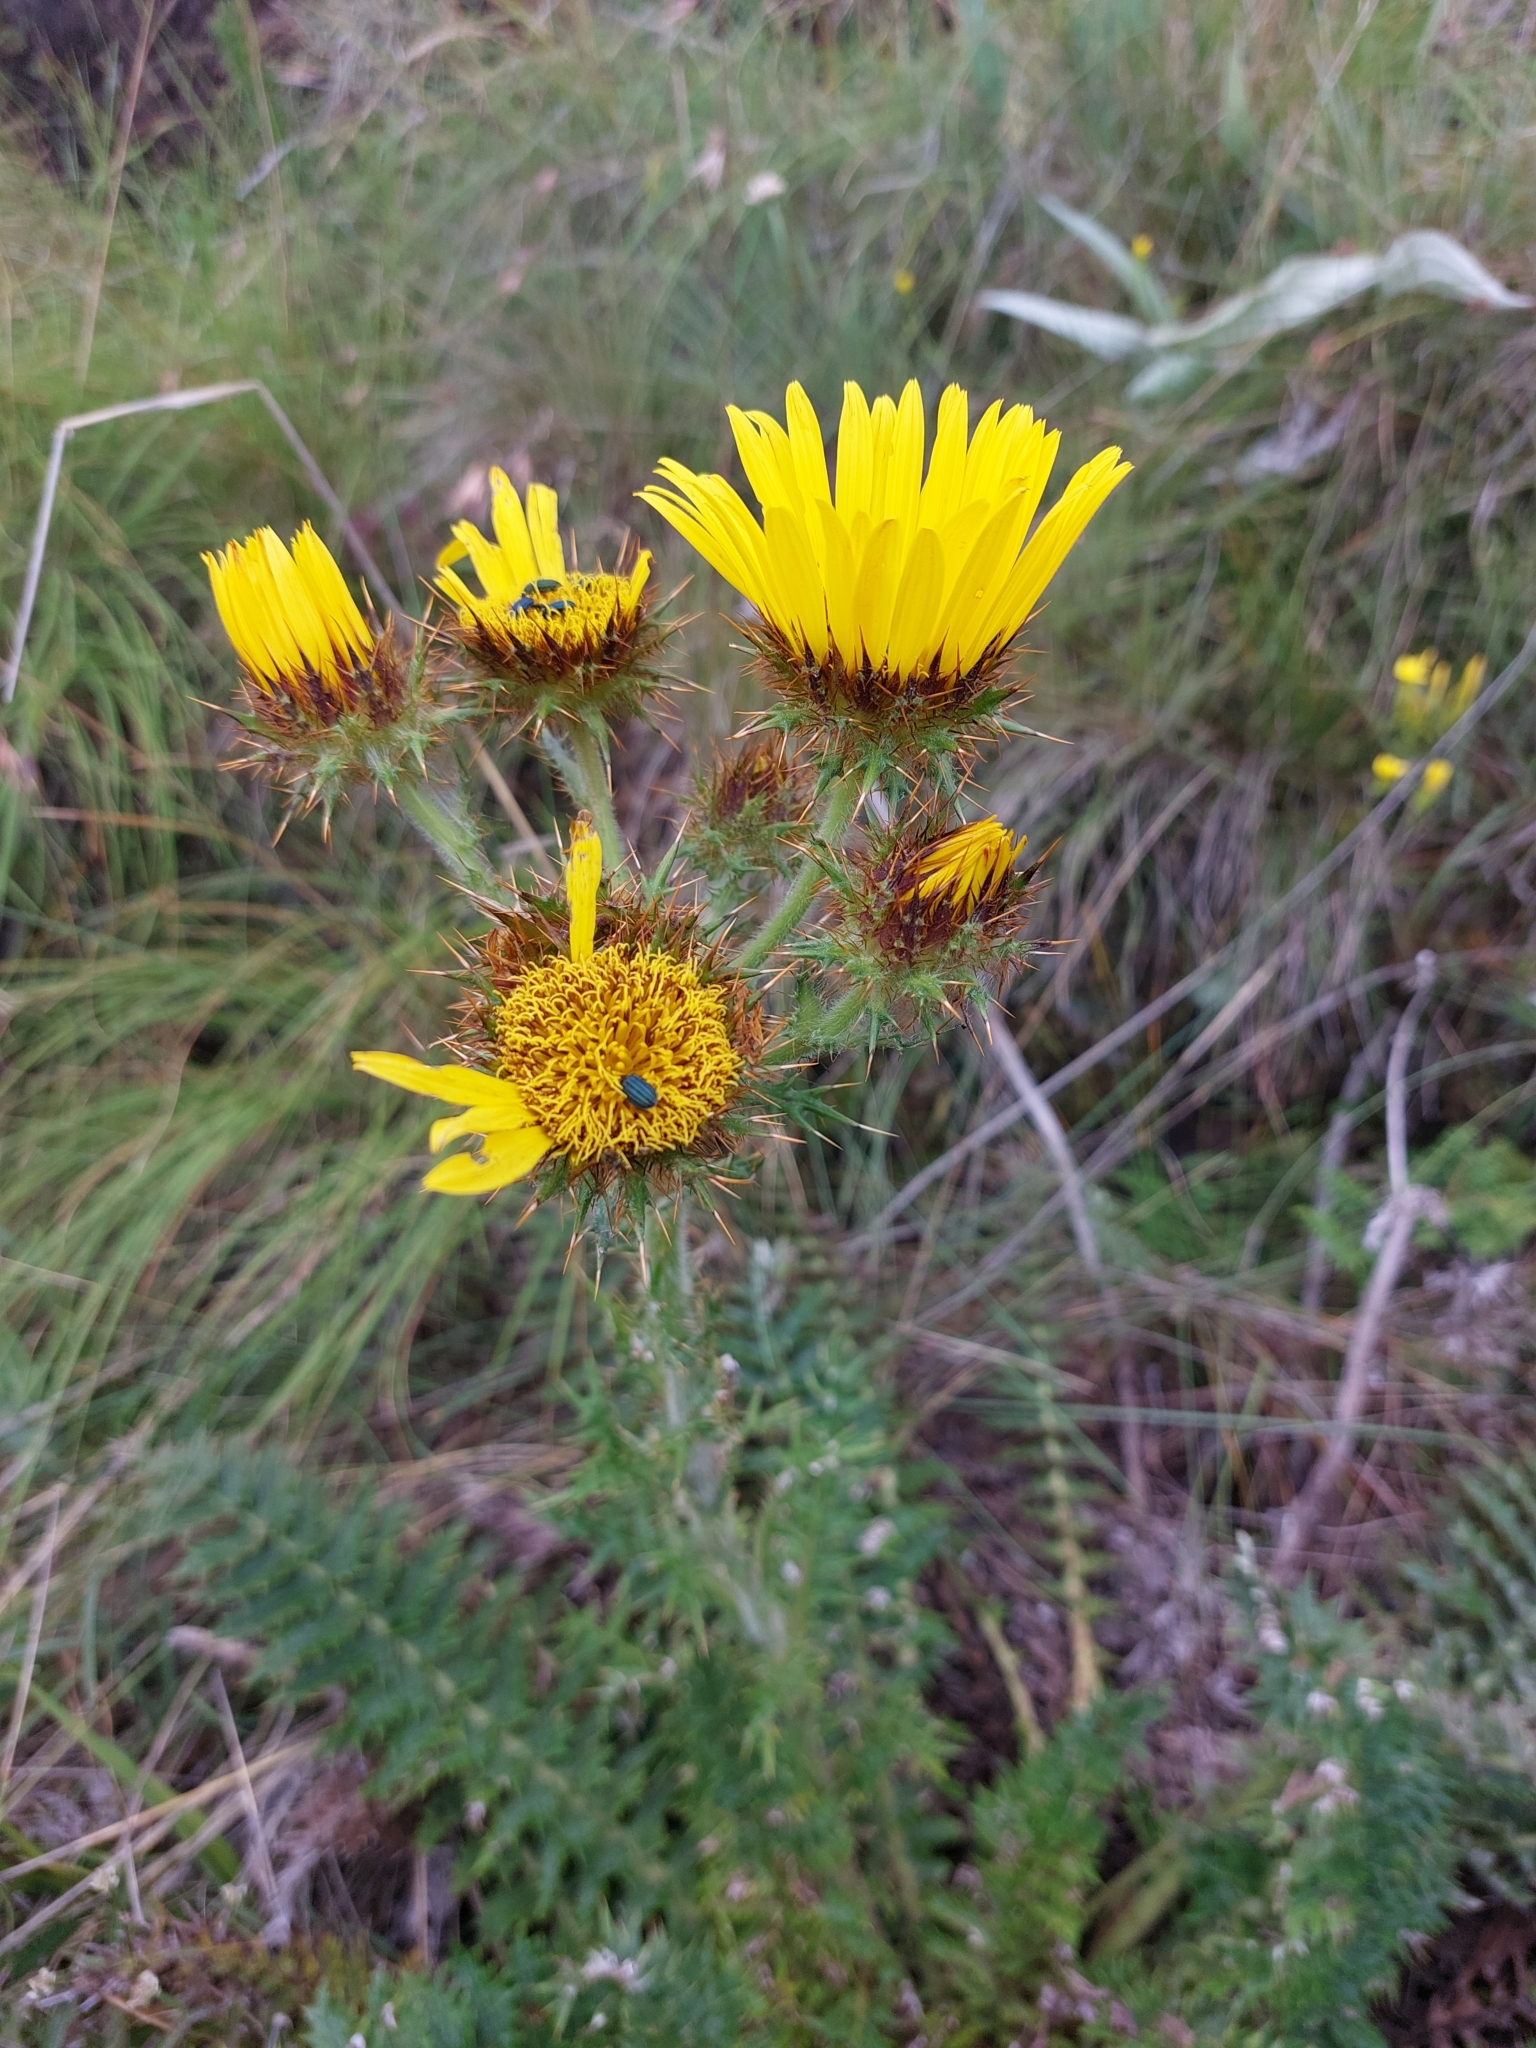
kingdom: Plantae
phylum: Tracheophyta
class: Magnoliopsida
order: Asterales
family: Asteraceae
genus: Berkheya
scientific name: Berkheya multijuga
